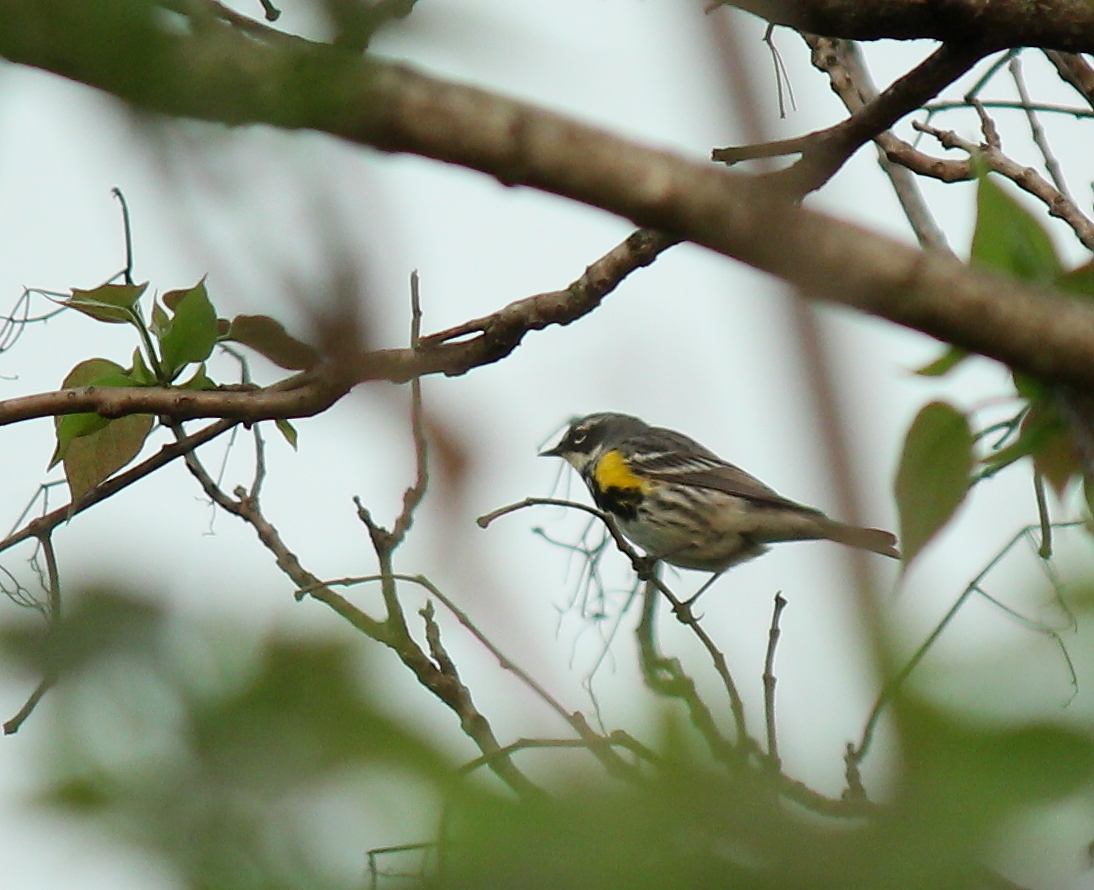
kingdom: Animalia
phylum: Chordata
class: Aves
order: Passeriformes
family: Parulidae
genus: Setophaga
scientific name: Setophaga coronata
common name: Myrtle warbler
